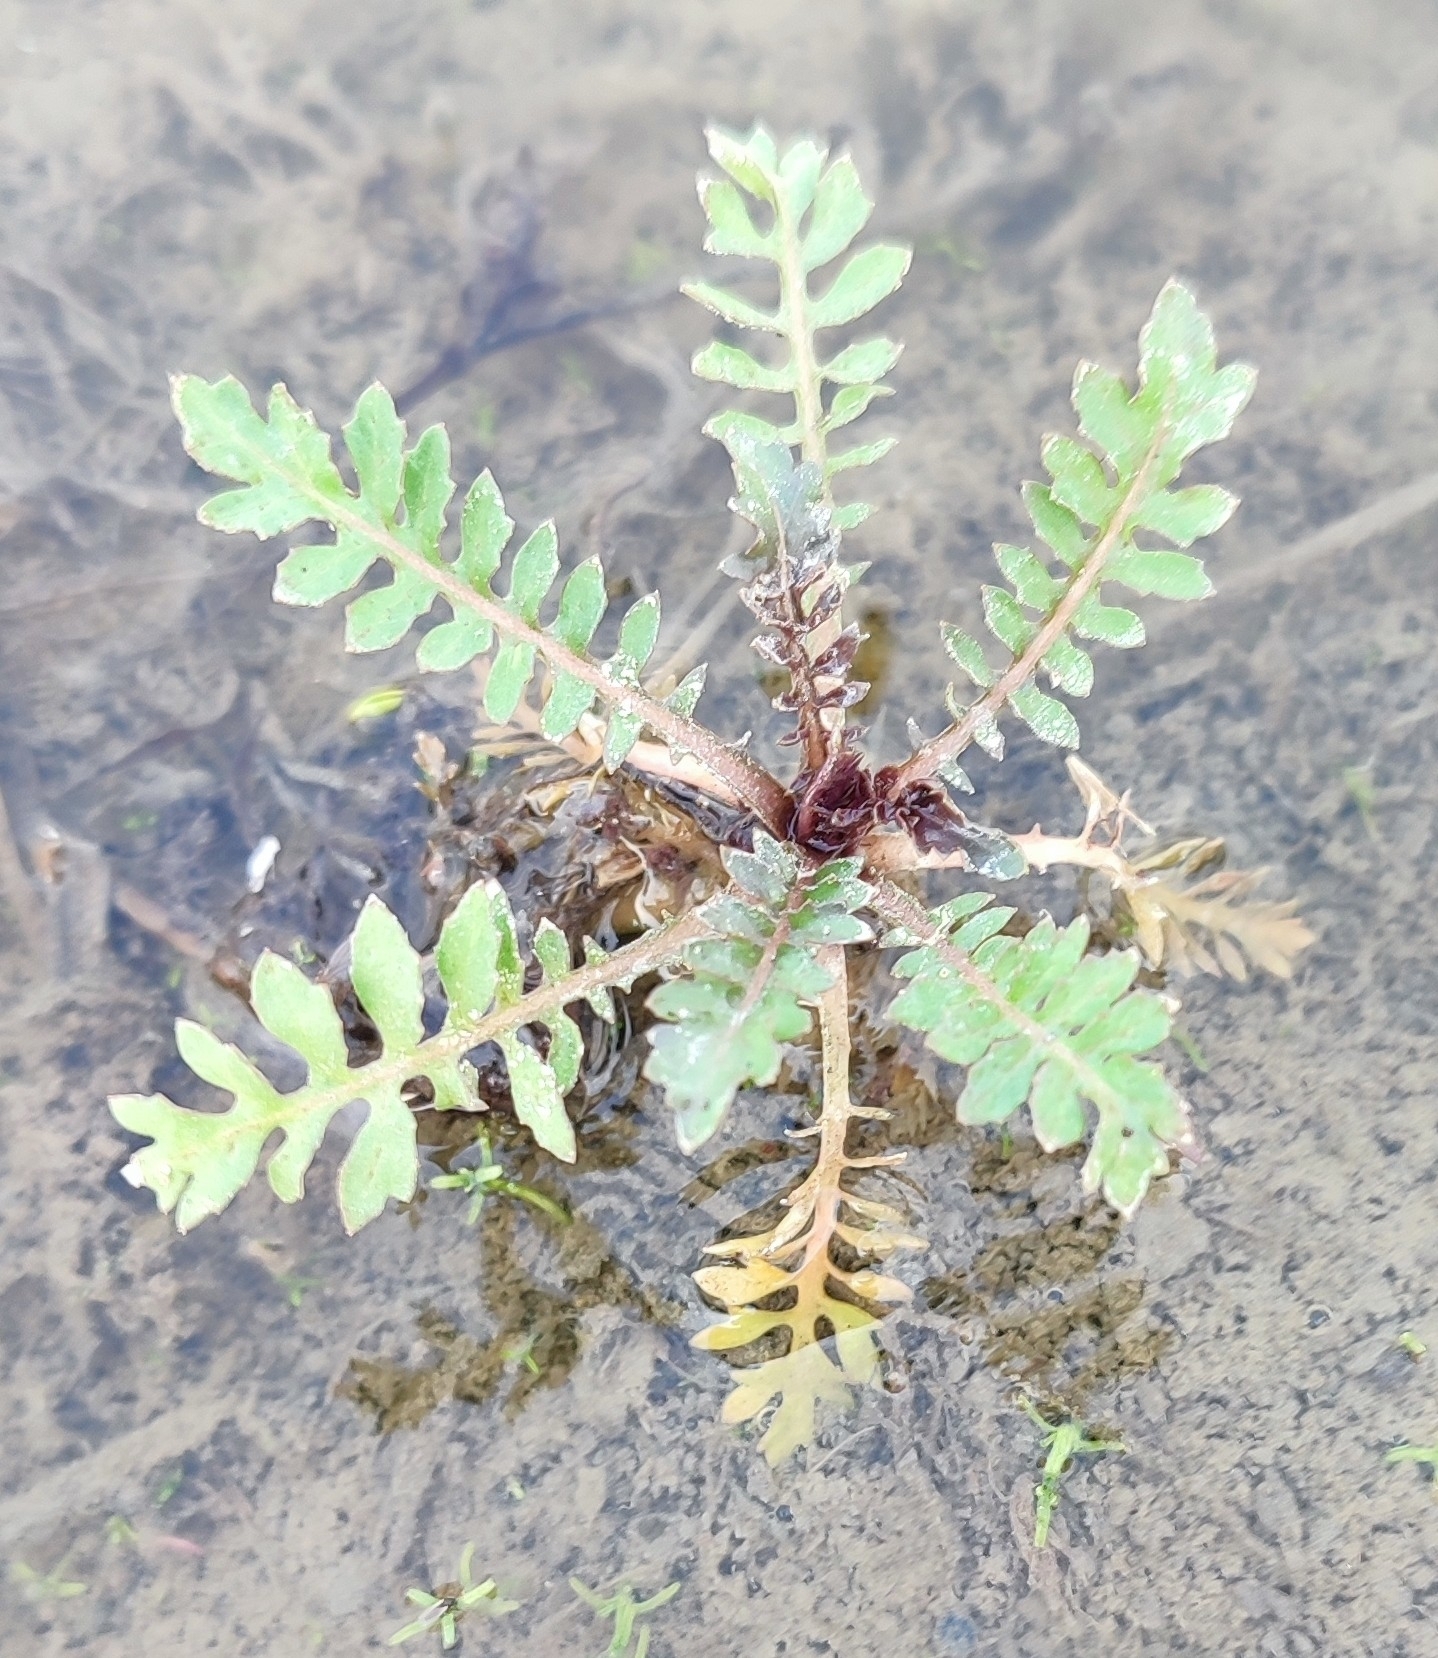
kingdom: Plantae
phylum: Tracheophyta
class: Magnoliopsida
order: Brassicales
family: Brassicaceae
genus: Rorippa
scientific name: Rorippa palustris
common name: Marsh yellow-cress
